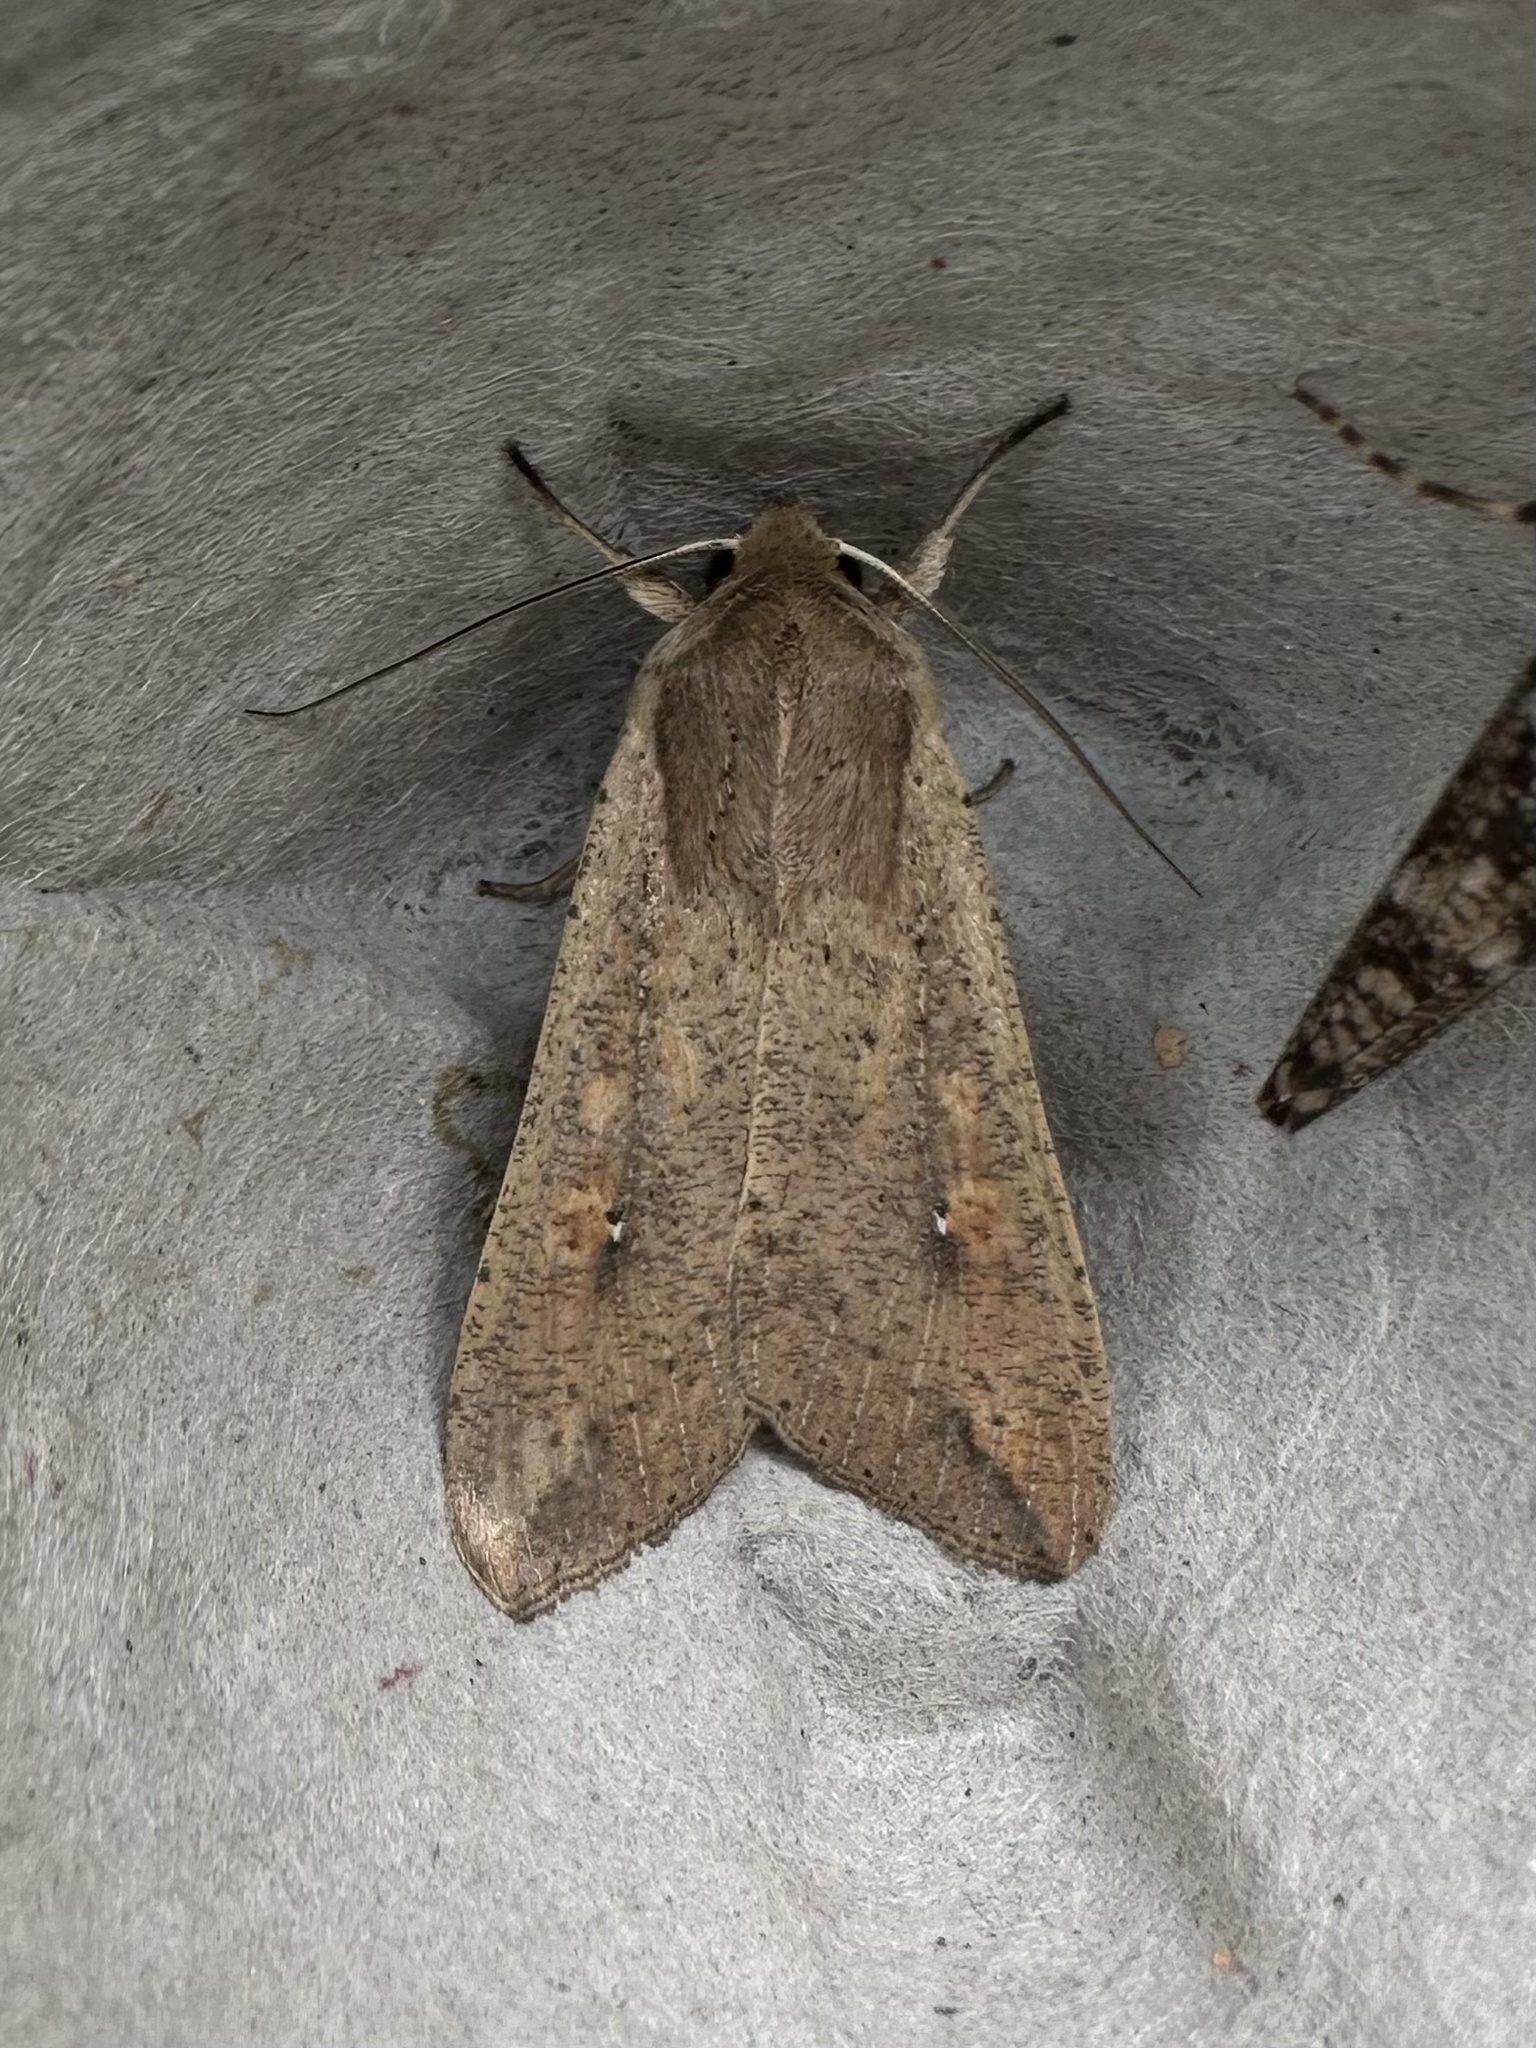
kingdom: Animalia
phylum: Arthropoda
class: Insecta
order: Lepidoptera
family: Noctuidae
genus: Mythimna
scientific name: Mythimna unipuncta
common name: White-speck
